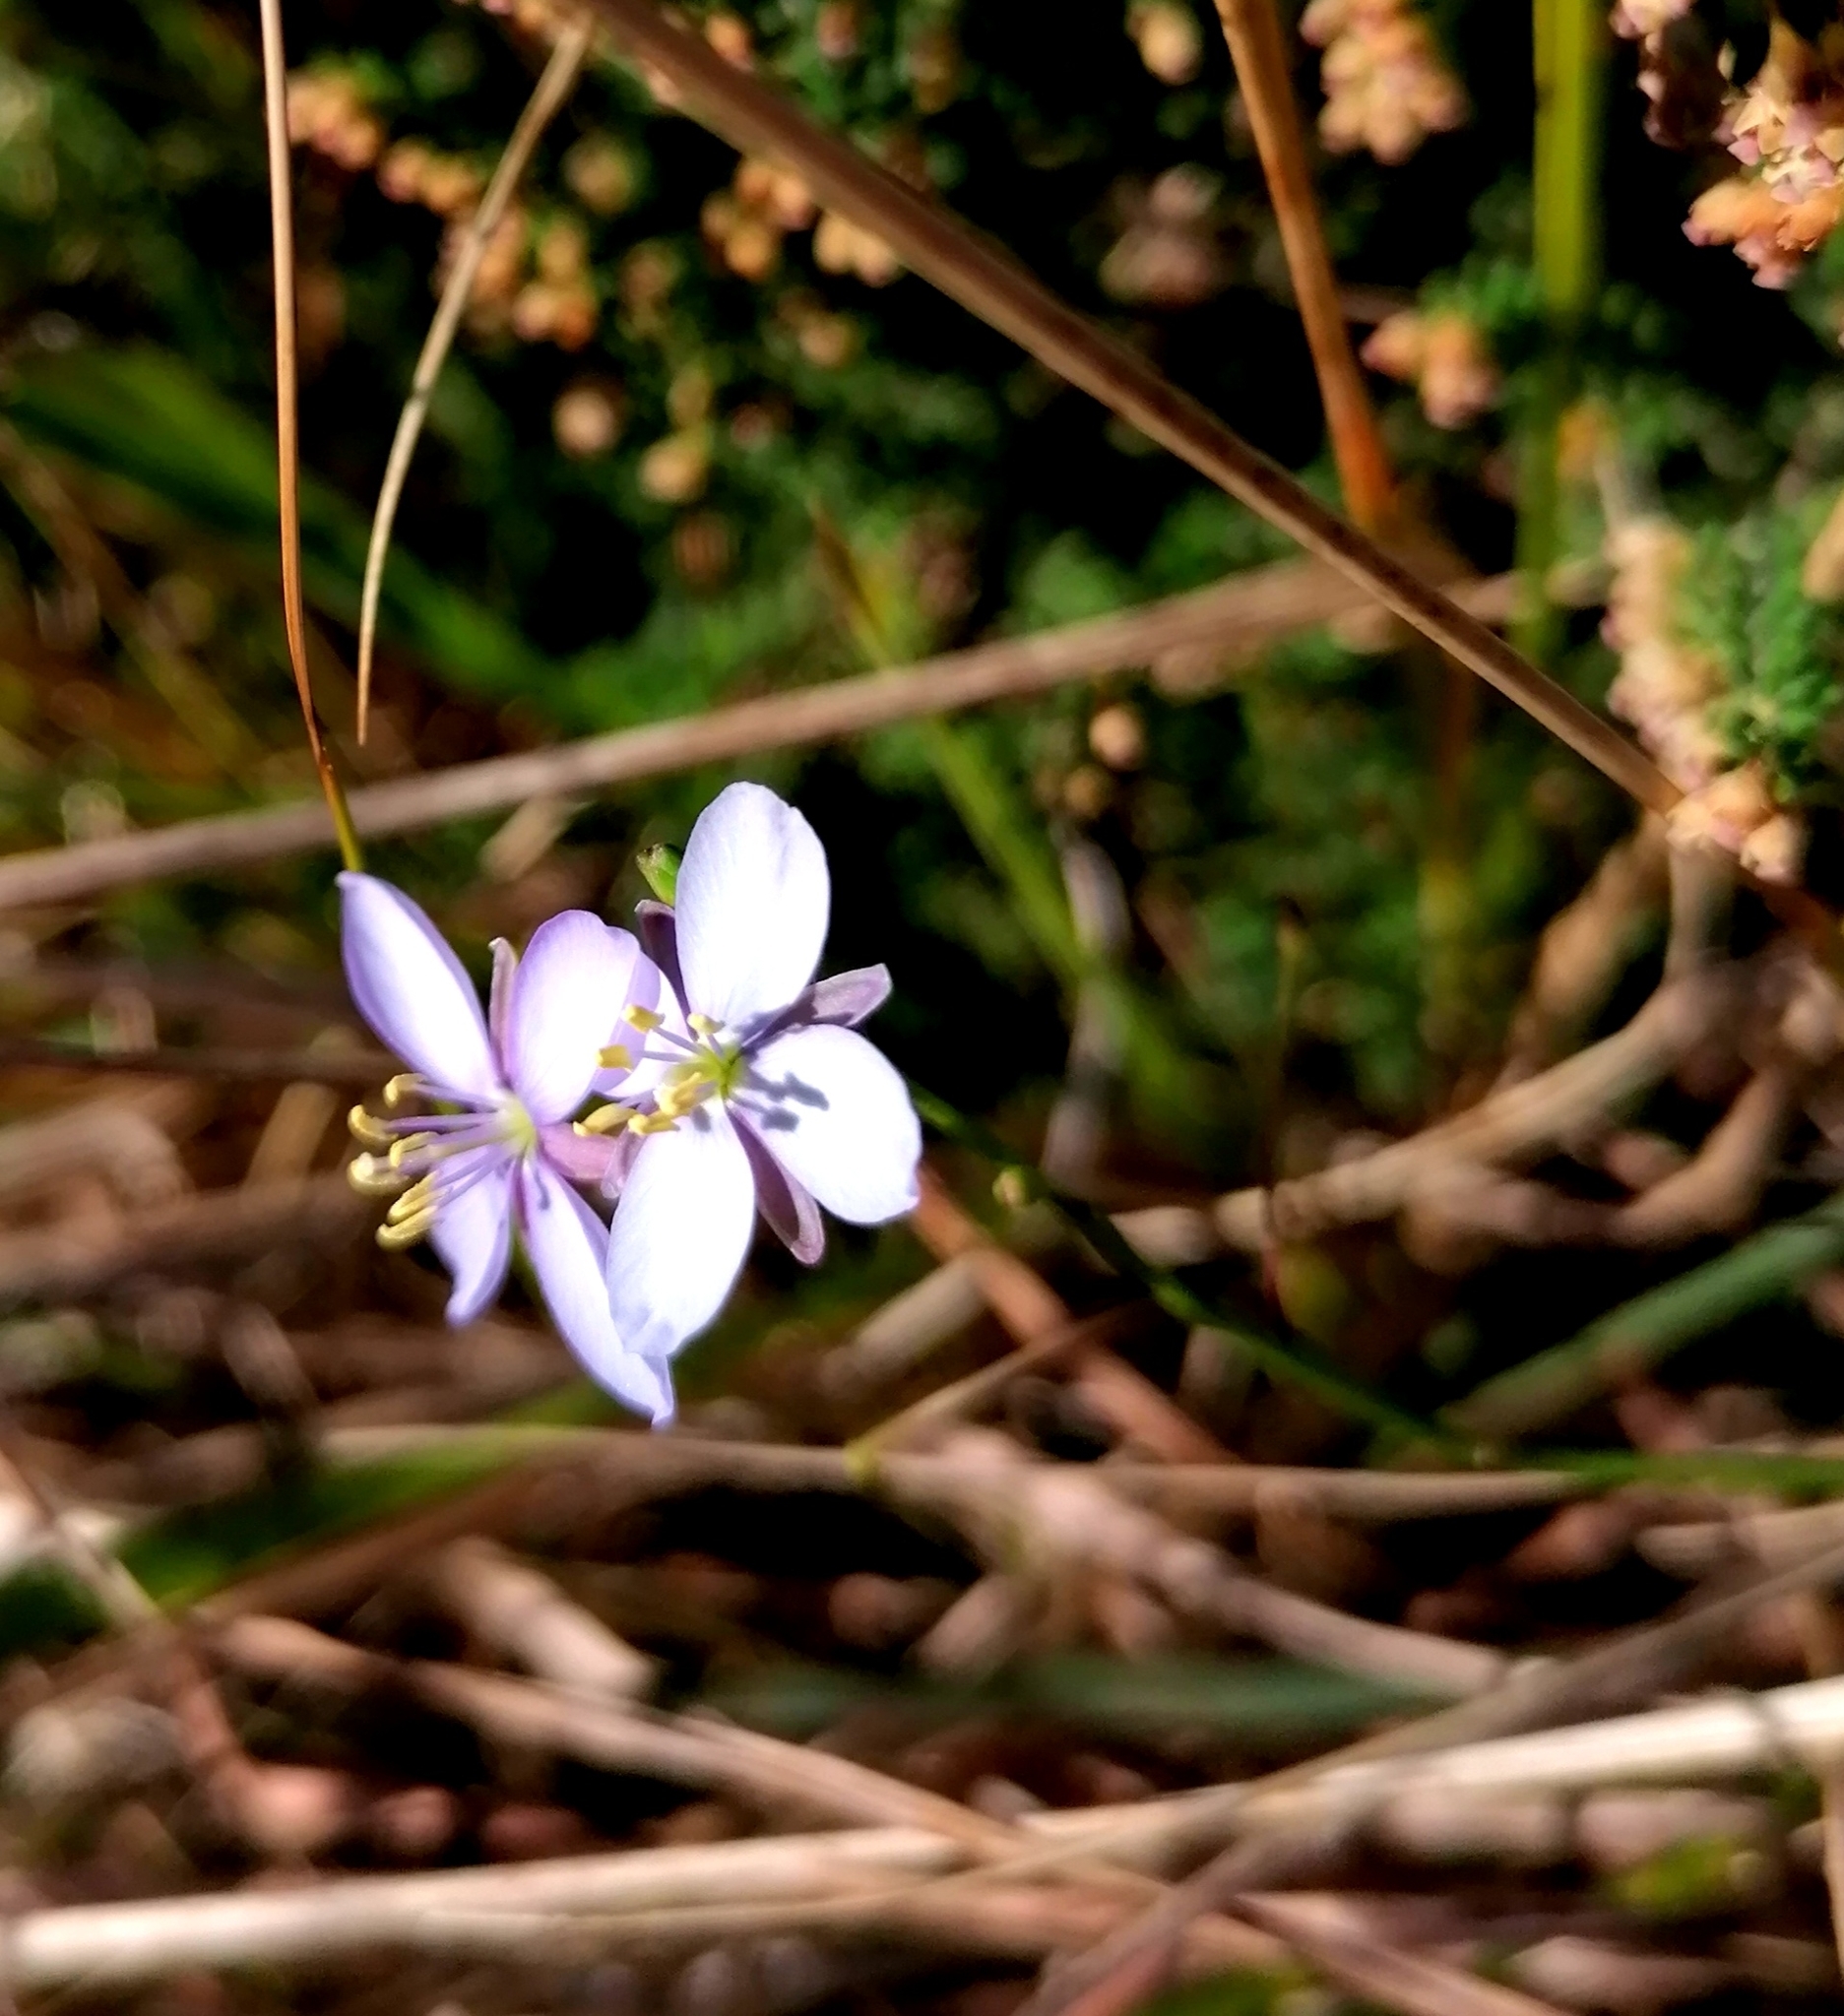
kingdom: Plantae
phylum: Tracheophyta
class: Magnoliopsida
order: Brassicales
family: Brassicaceae
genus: Heliophila
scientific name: Heliophila subulata
